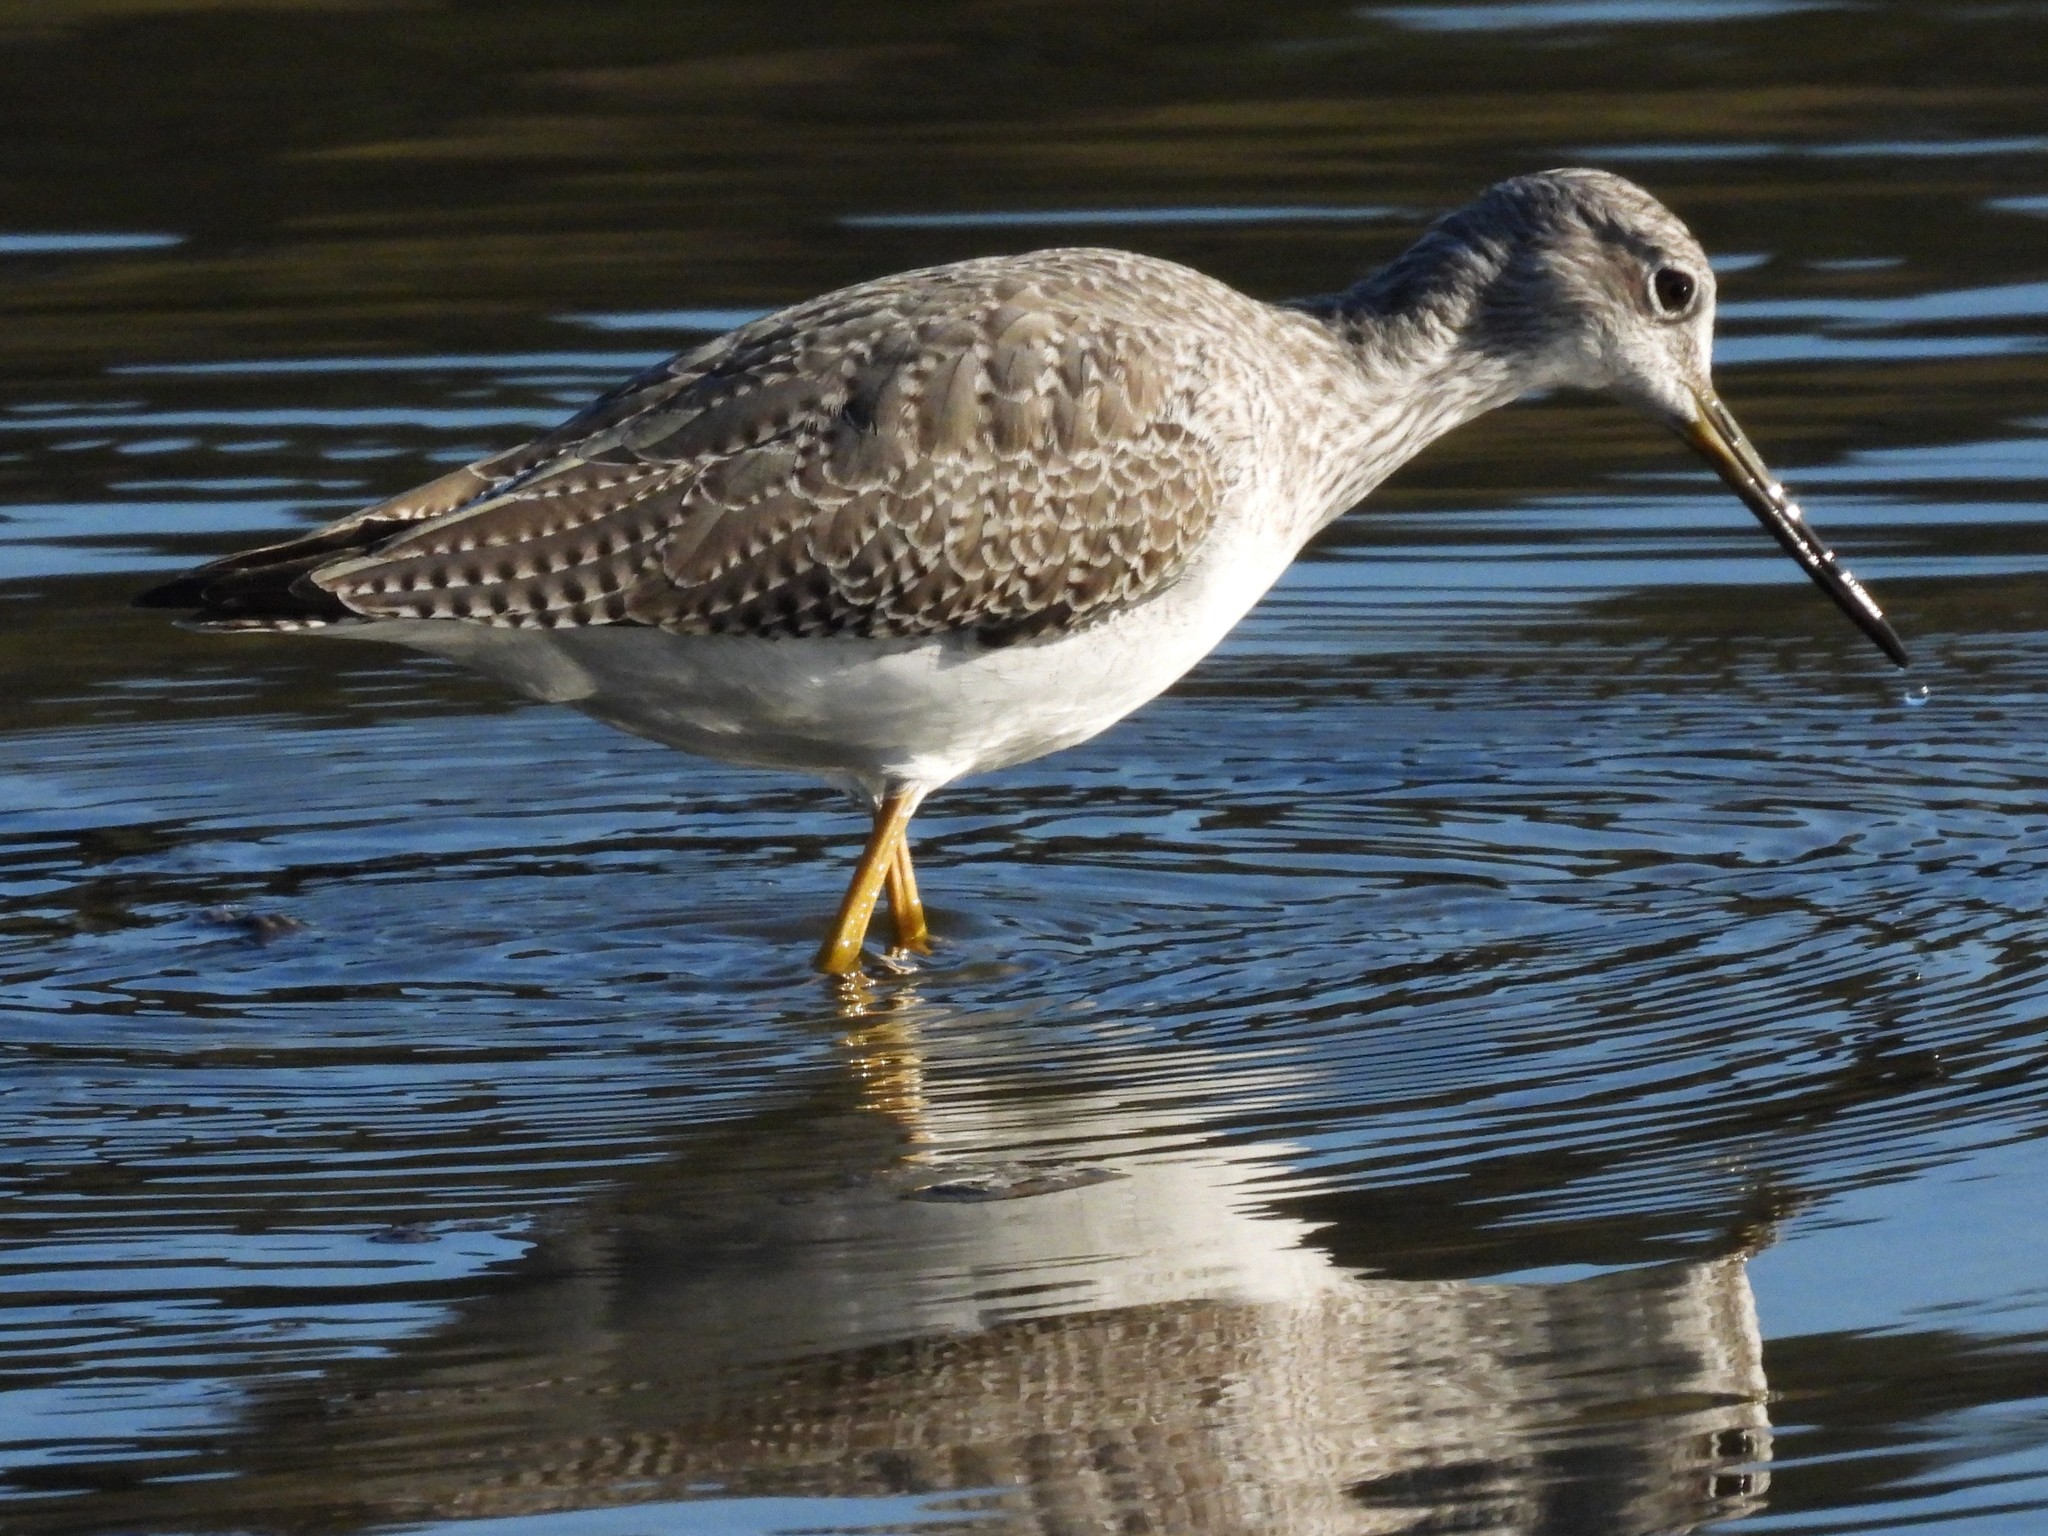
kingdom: Animalia
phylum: Chordata
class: Aves
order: Charadriiformes
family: Scolopacidae
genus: Tringa
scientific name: Tringa melanoleuca
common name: Greater yellowlegs
